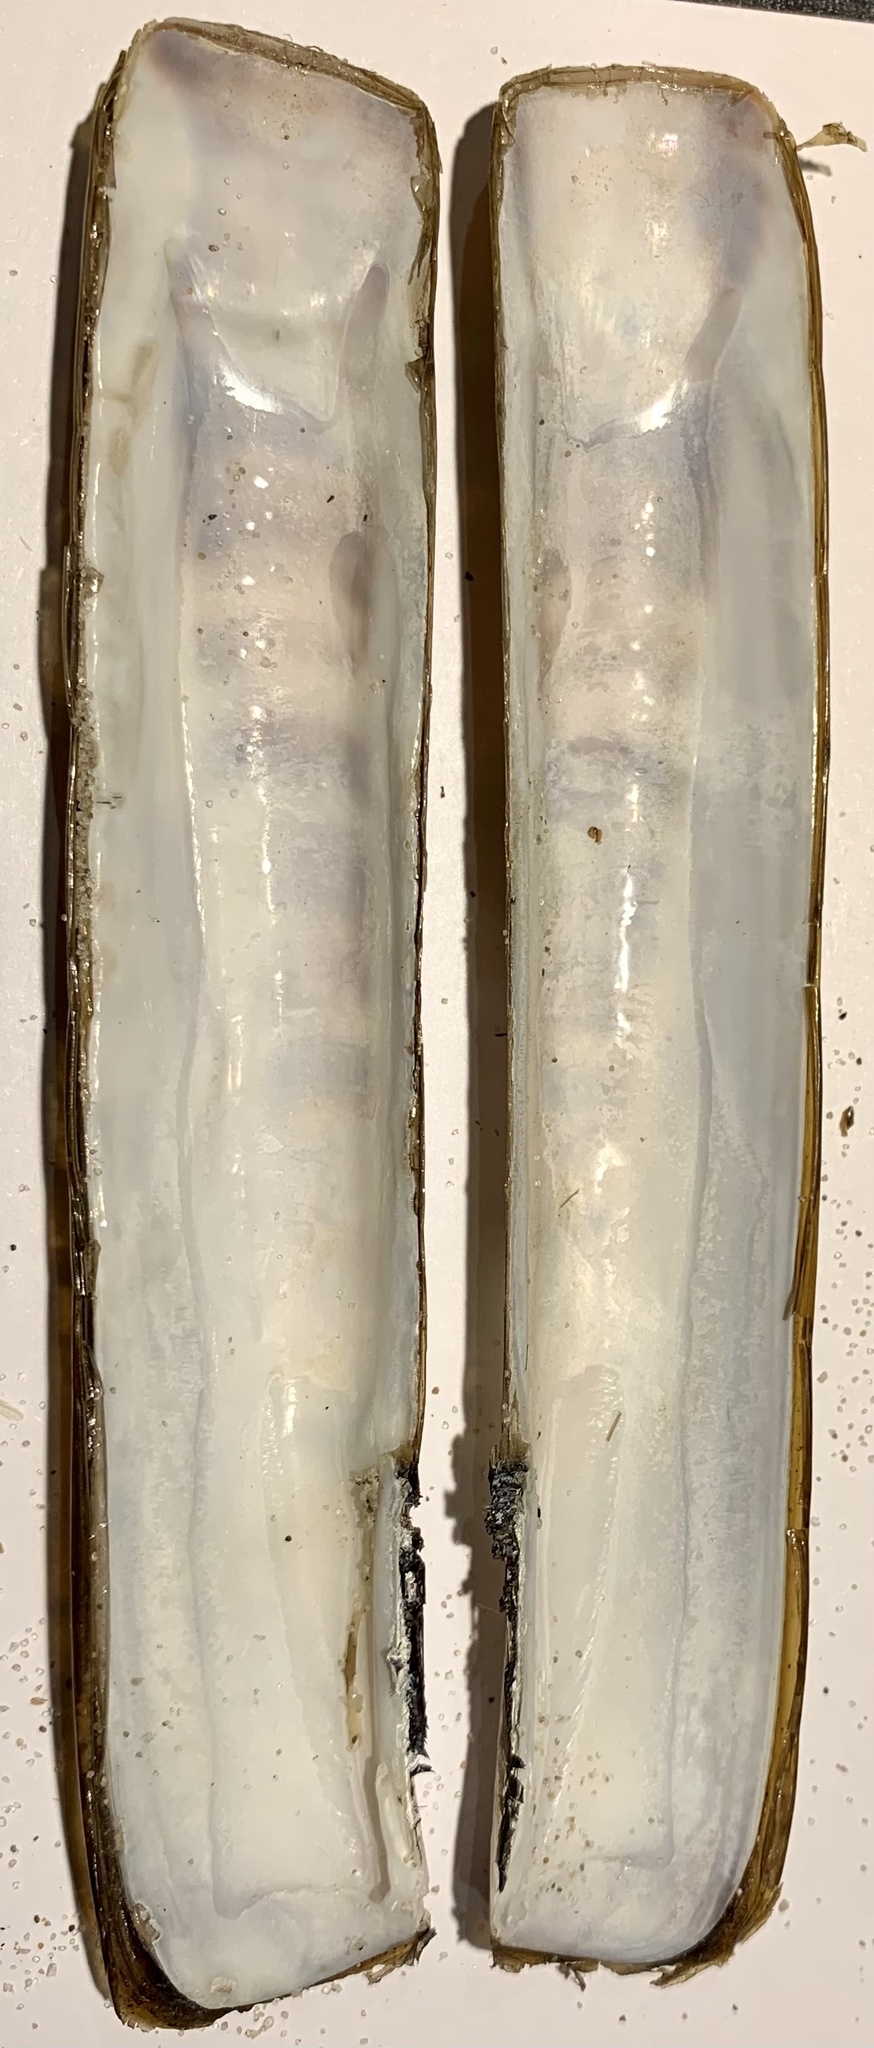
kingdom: Animalia
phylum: Mollusca
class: Bivalvia
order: Adapedonta
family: Pharidae
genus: Ensis
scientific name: Ensis leei
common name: American jack knife clam
